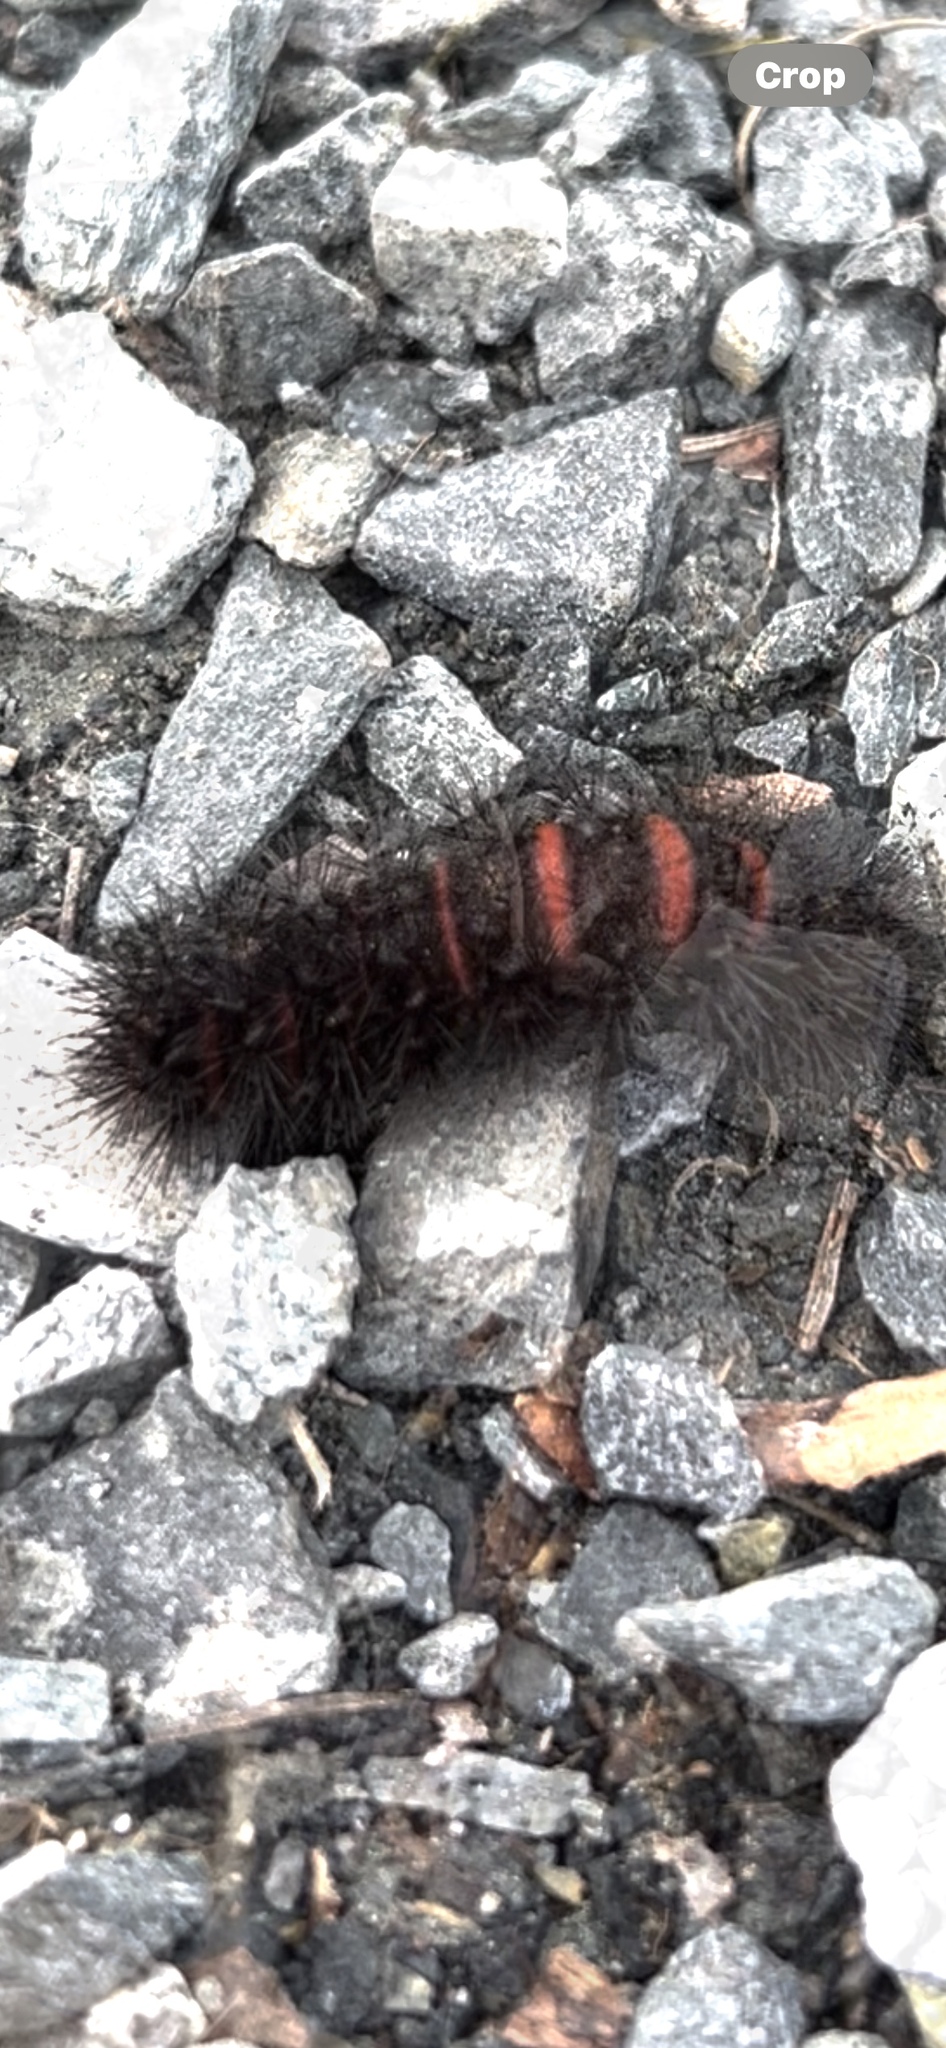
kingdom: Animalia
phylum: Arthropoda
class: Insecta
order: Lepidoptera
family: Erebidae
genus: Hypercompe
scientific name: Hypercompe scribonia
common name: Giant leopard moth
